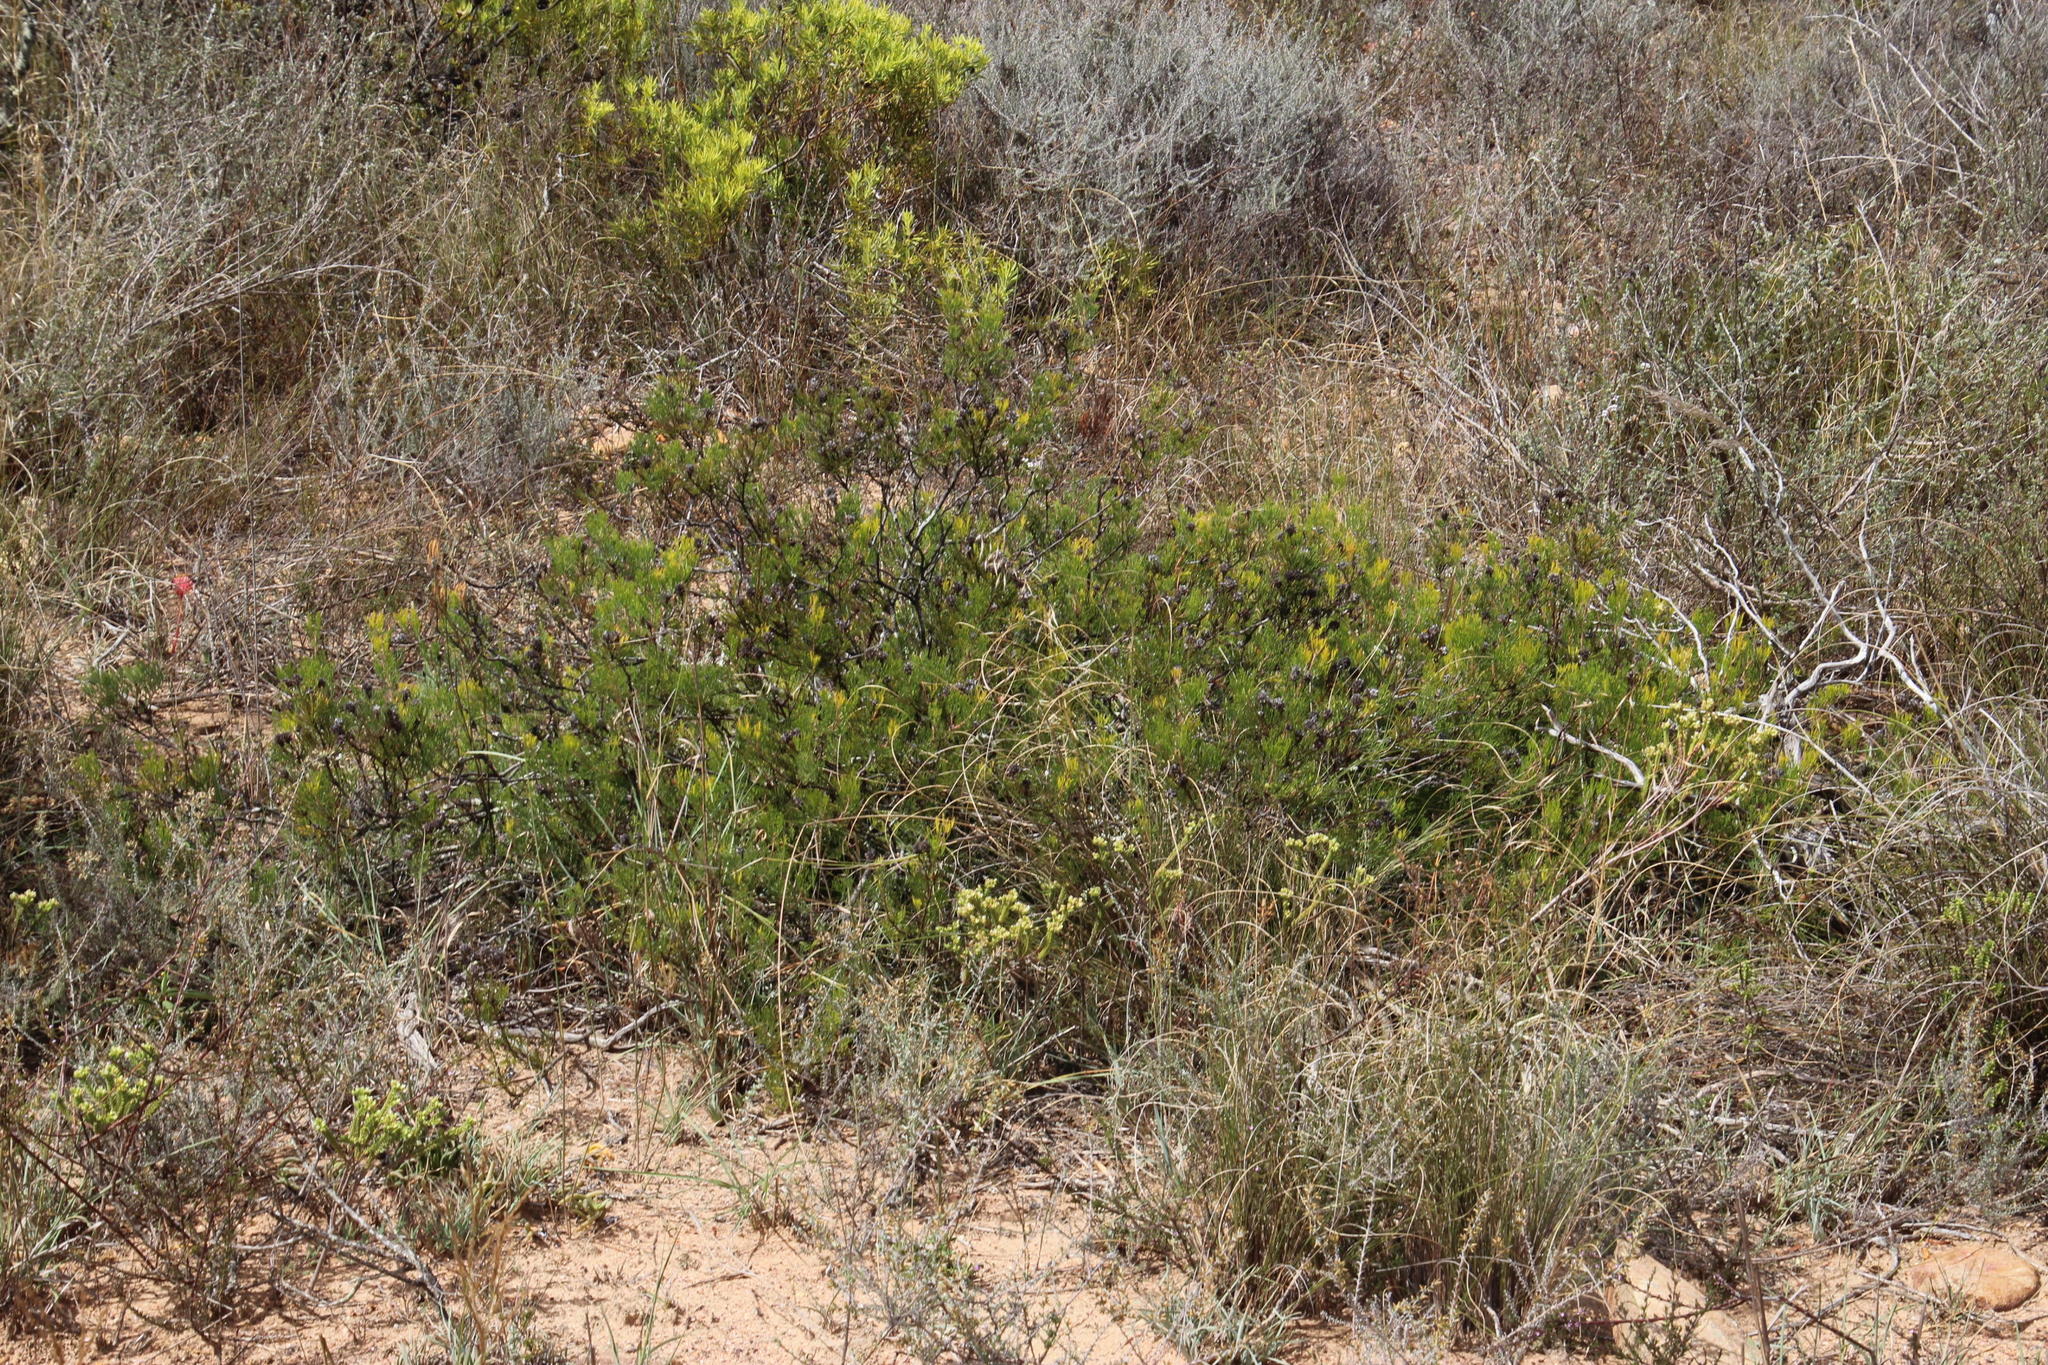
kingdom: Plantae
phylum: Tracheophyta
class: Magnoliopsida
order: Proteales
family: Proteaceae
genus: Serruria
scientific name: Serruria
